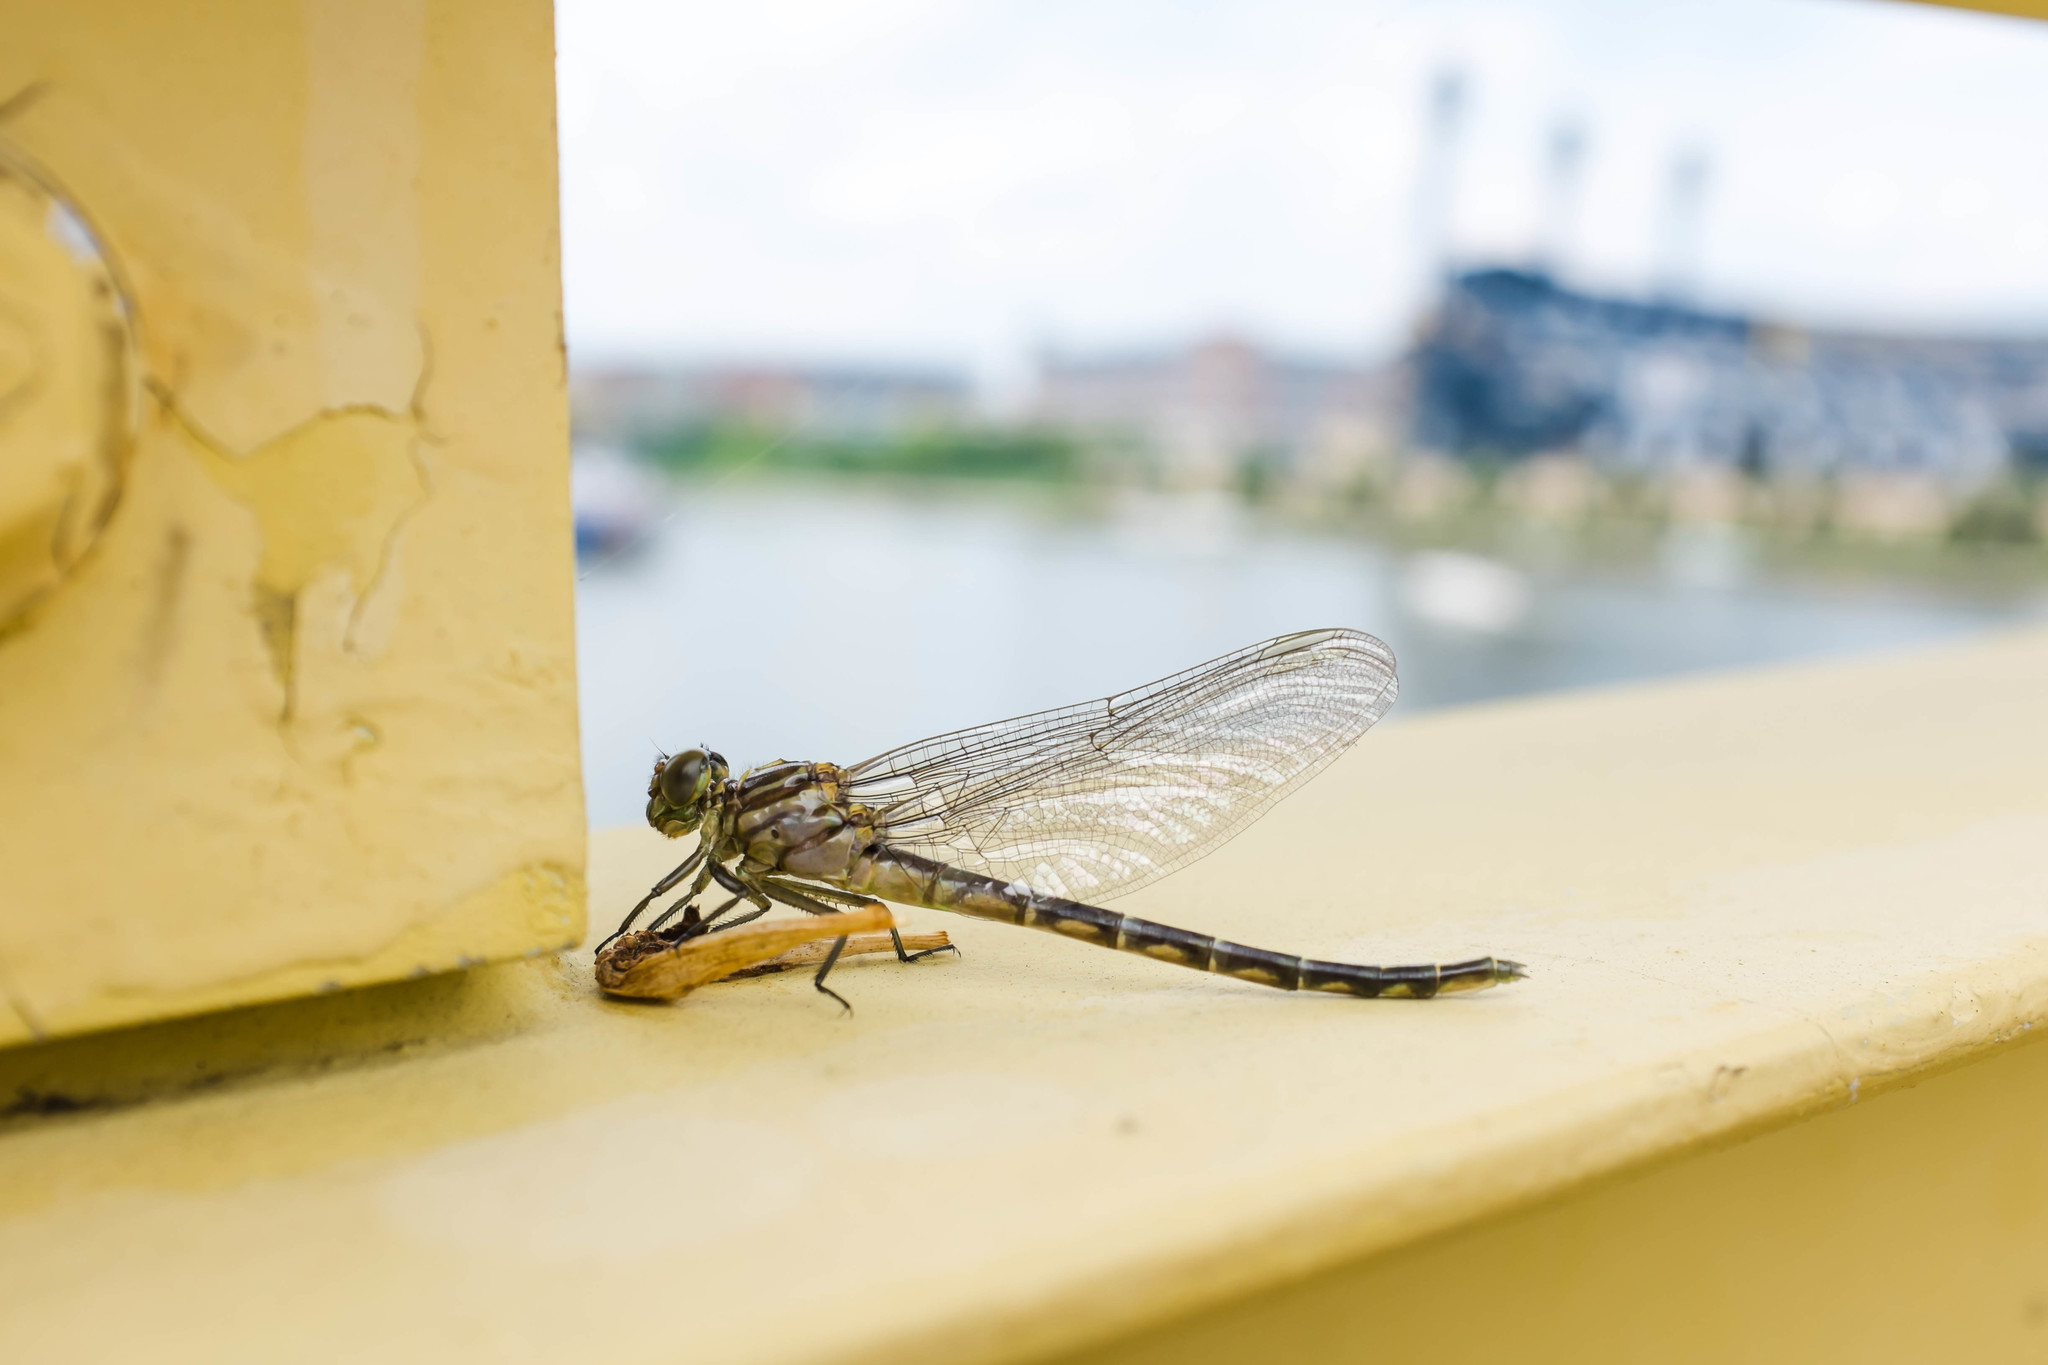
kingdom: Animalia
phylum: Arthropoda
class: Insecta
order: Odonata
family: Gomphidae
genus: Stylurus
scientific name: Stylurus notatus
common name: Elusive clubtail
